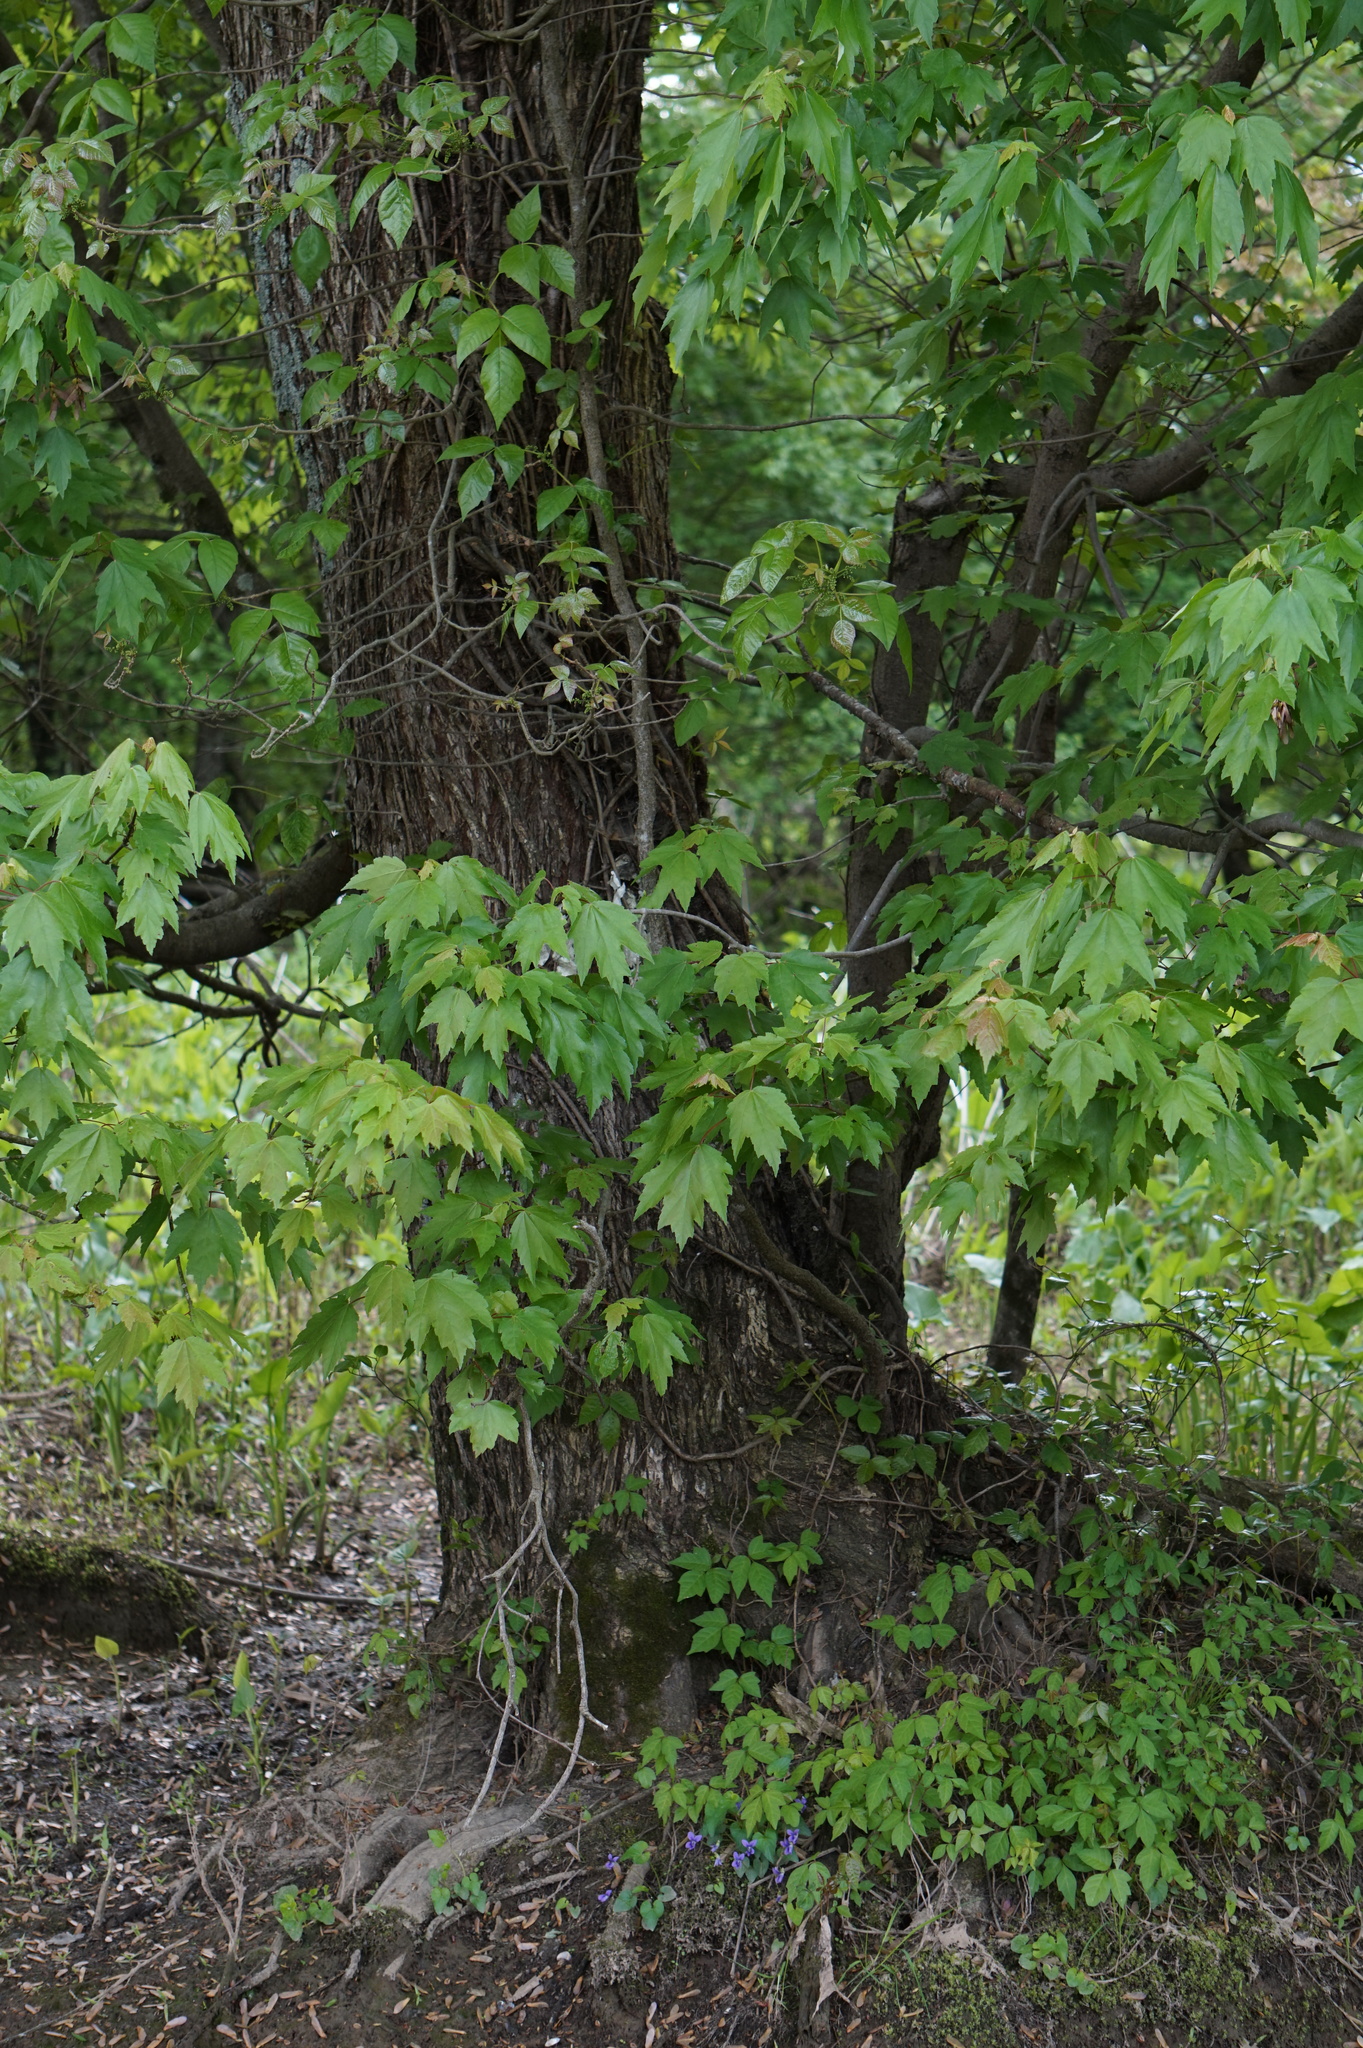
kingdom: Plantae
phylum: Tracheophyta
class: Magnoliopsida
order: Sapindales
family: Sapindaceae
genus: Acer
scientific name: Acer rubrum
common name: Red maple
